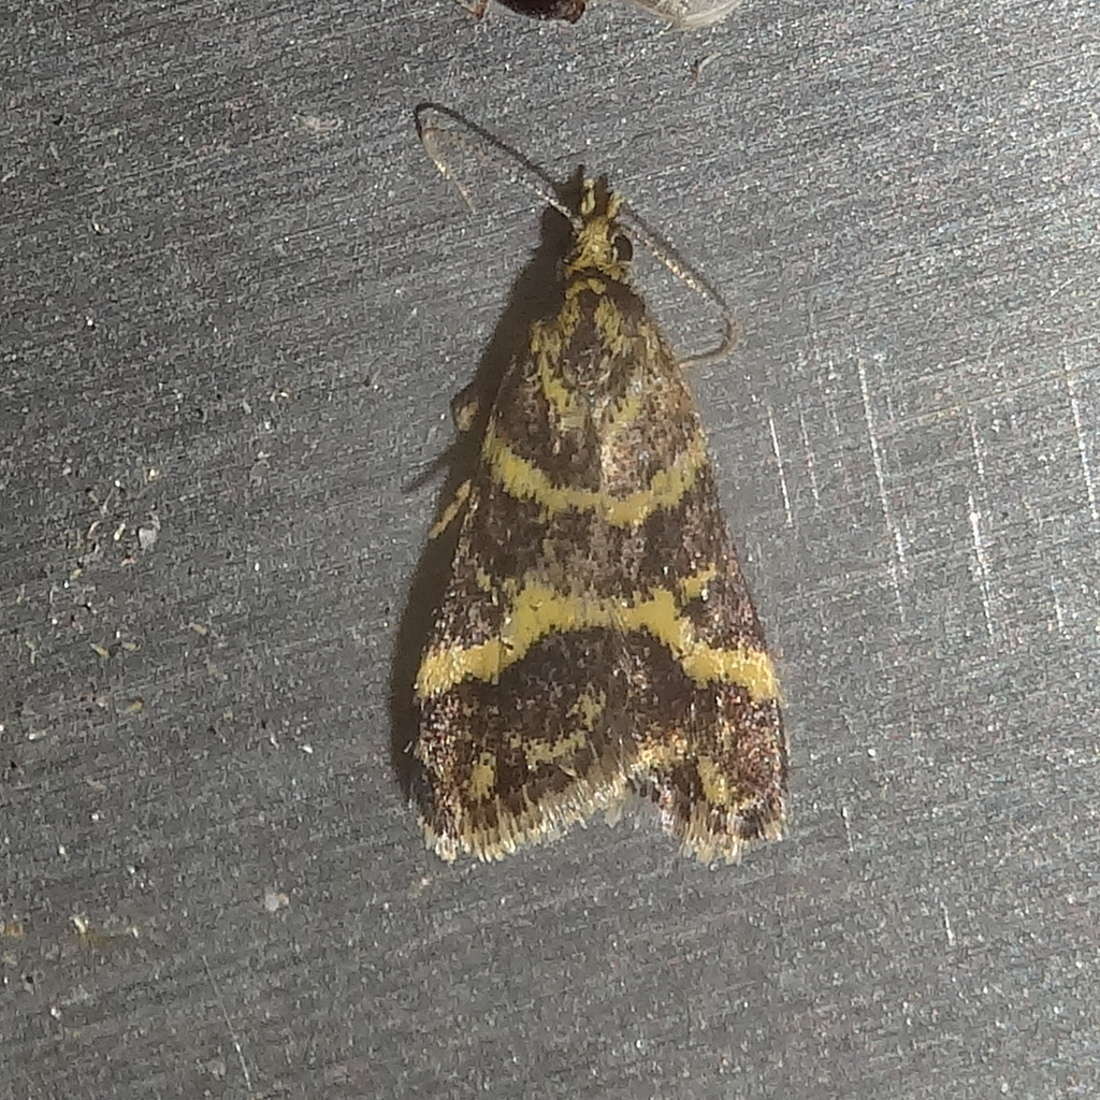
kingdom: Animalia
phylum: Arthropoda
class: Insecta
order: Lepidoptera
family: Crambidae
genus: Scoparia
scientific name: Scoparia spelaea
